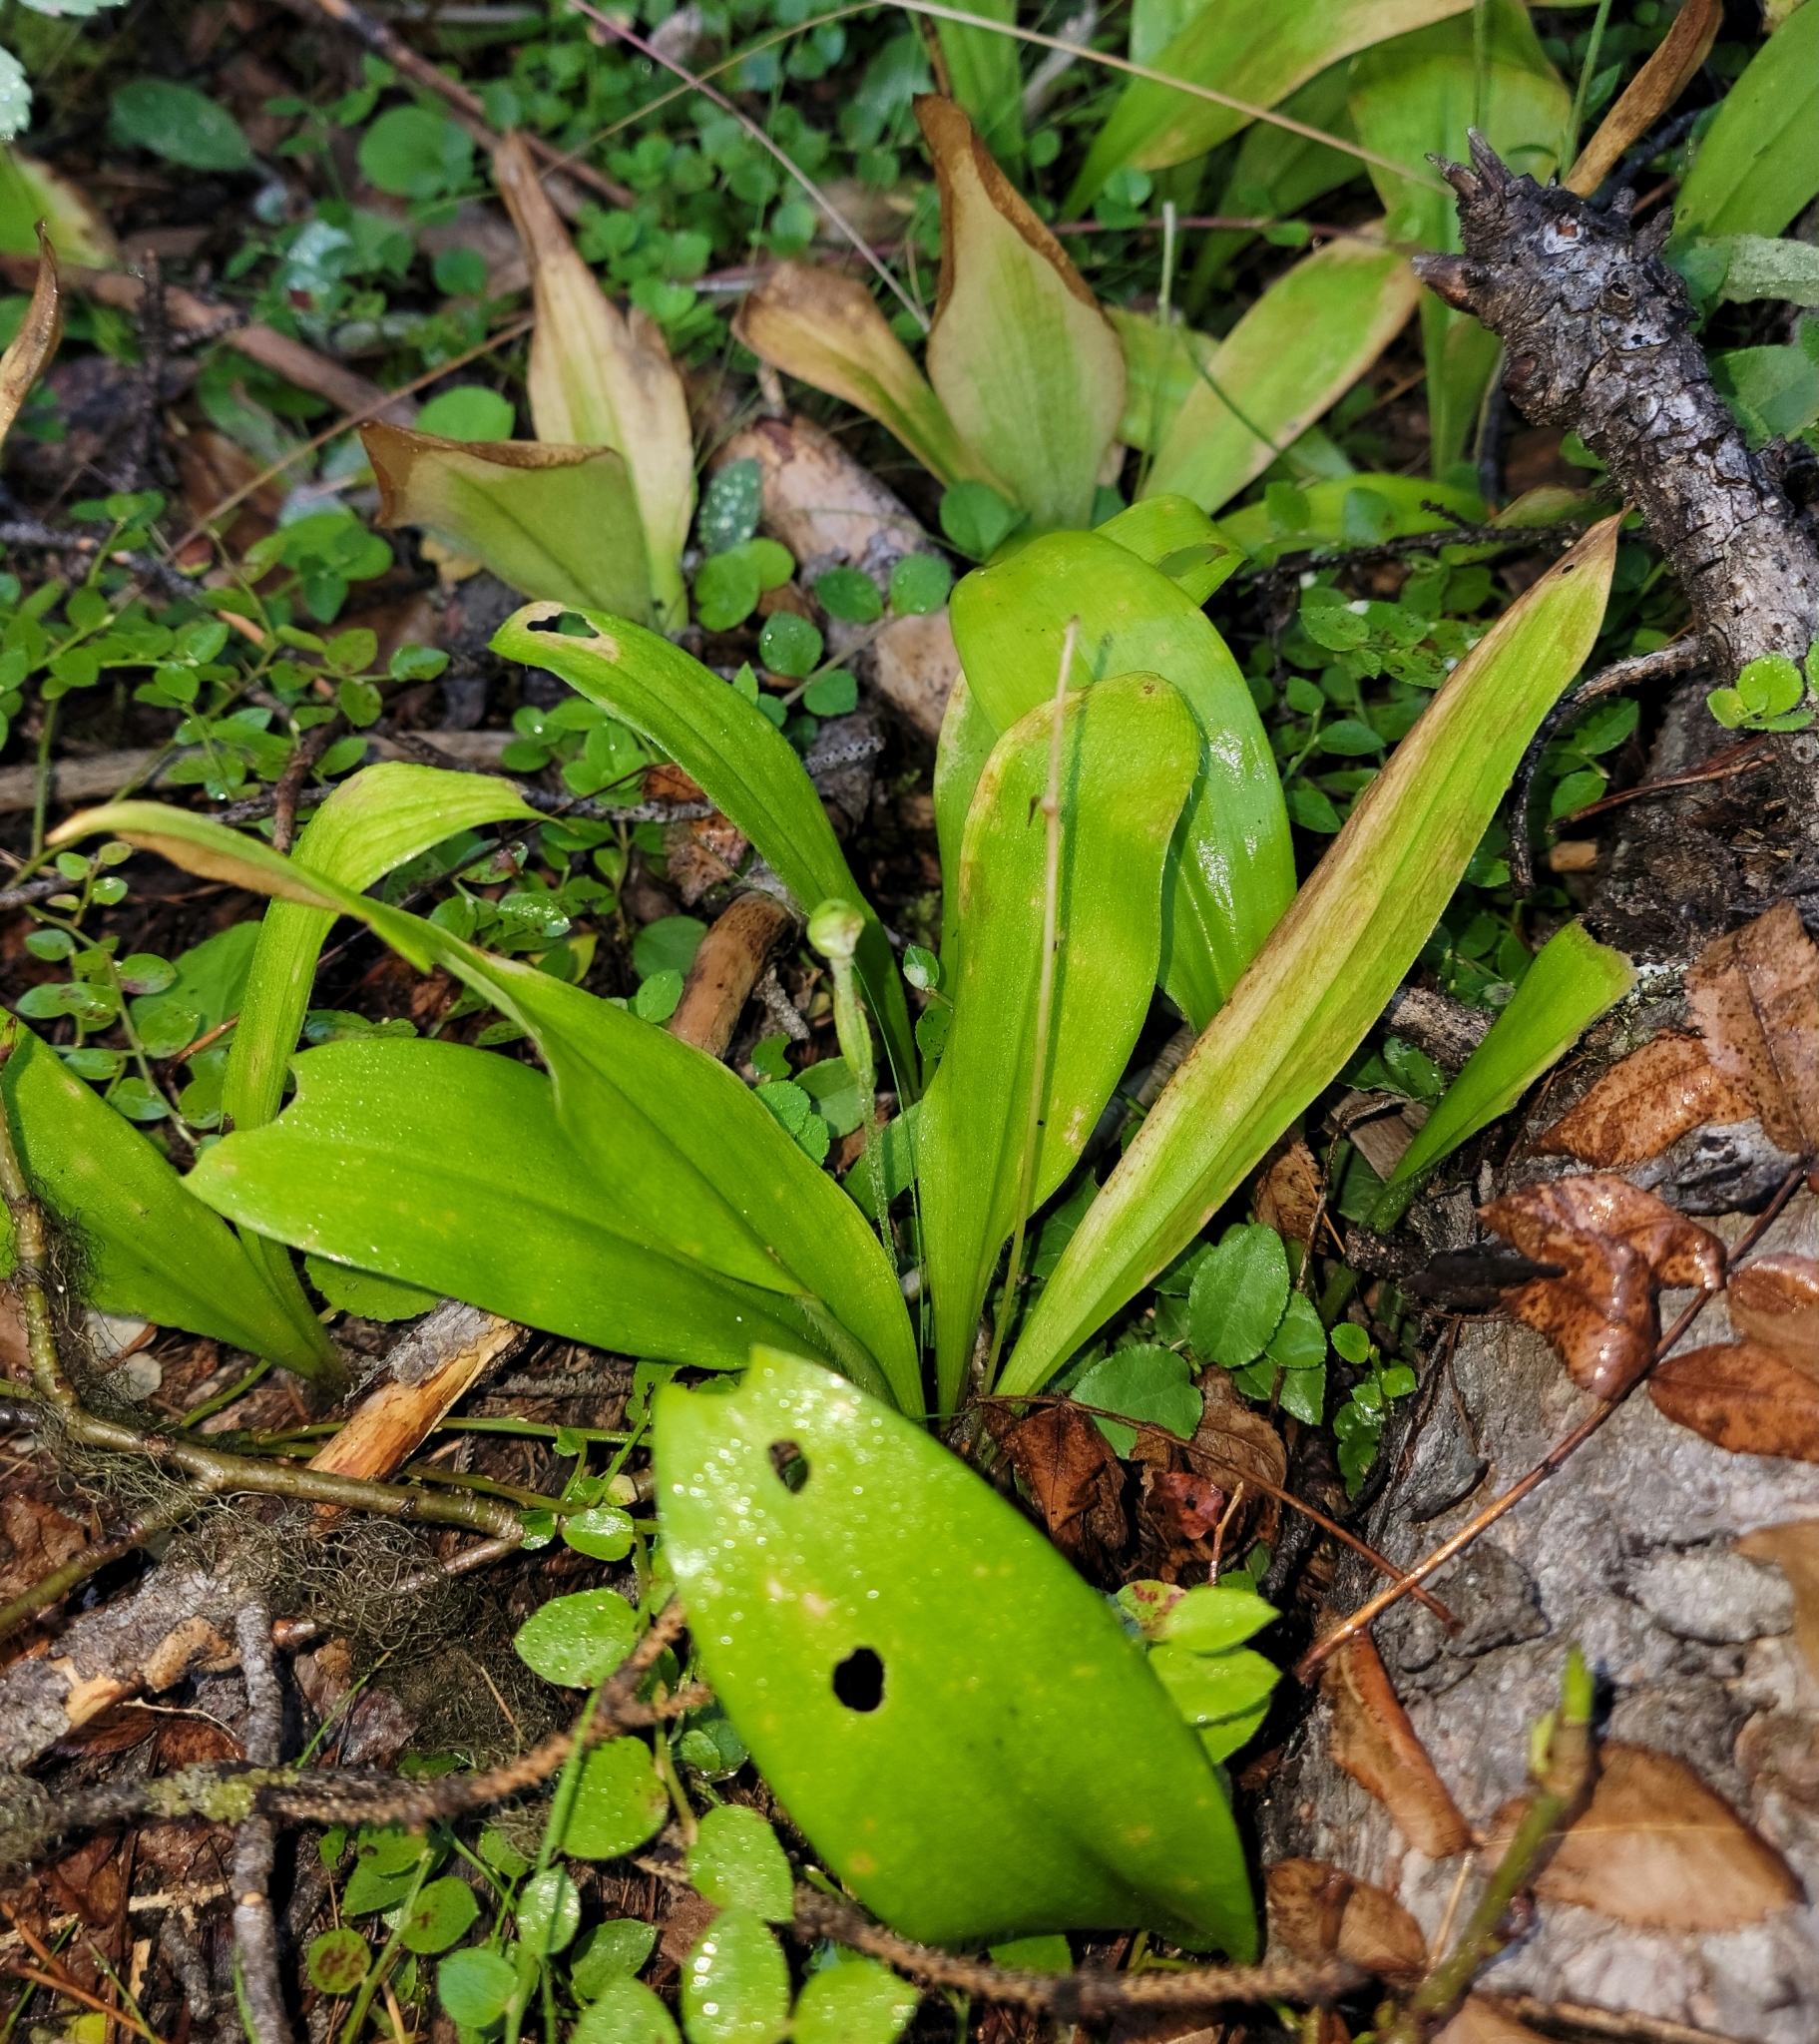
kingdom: Plantae
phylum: Tracheophyta
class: Liliopsida
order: Liliales
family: Liliaceae
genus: Clintonia
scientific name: Clintonia uniflora
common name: Queen's cup
